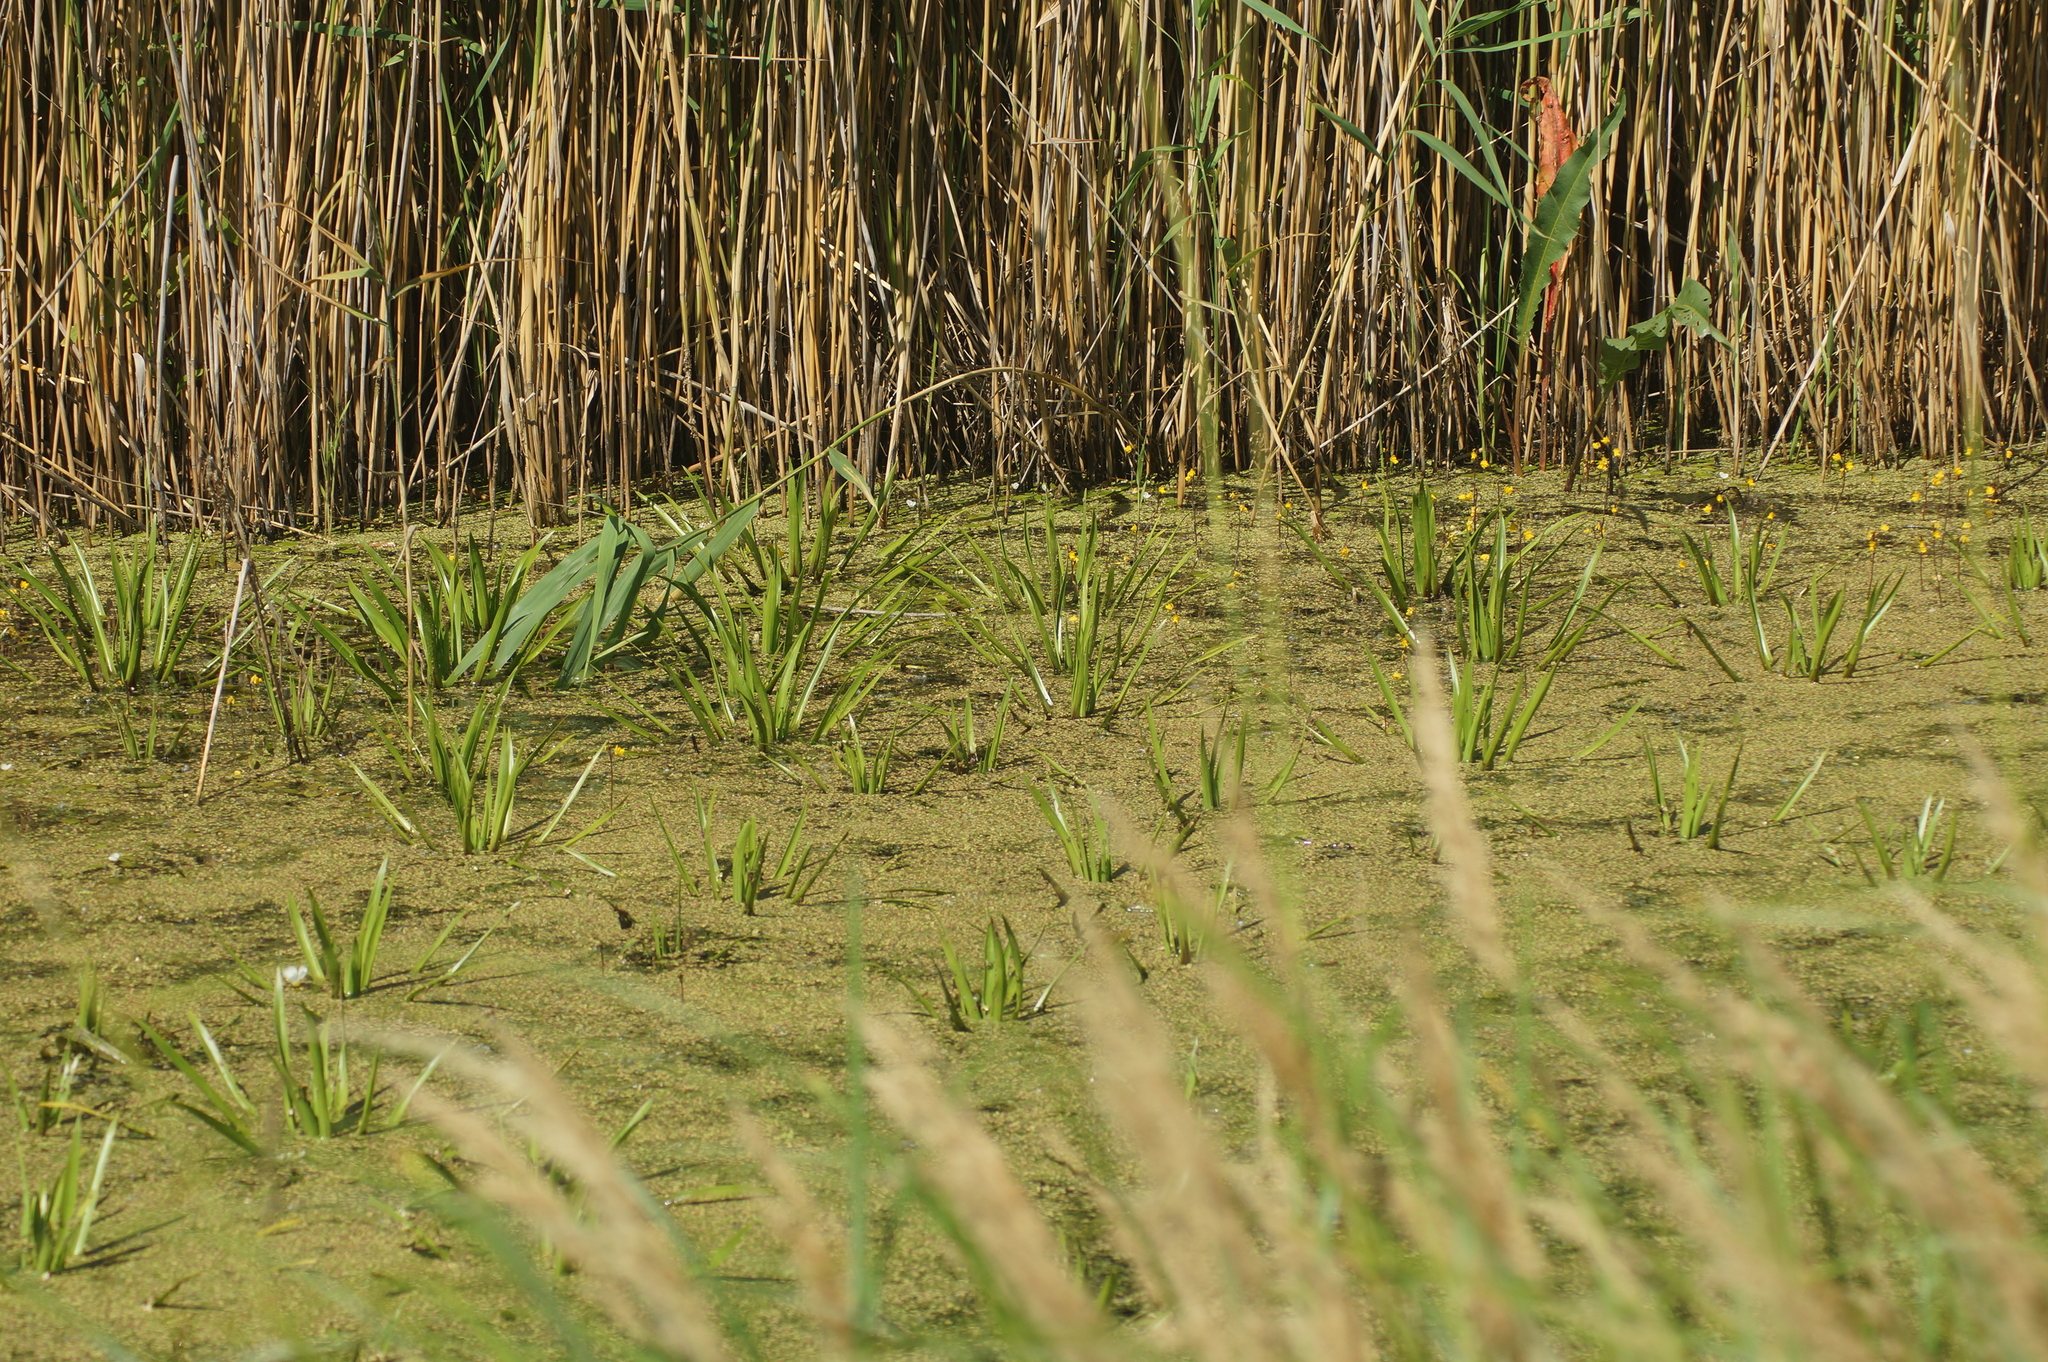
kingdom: Plantae
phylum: Tracheophyta
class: Liliopsida
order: Alismatales
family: Hydrocharitaceae
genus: Stratiotes
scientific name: Stratiotes aloides
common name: Water-soldier
